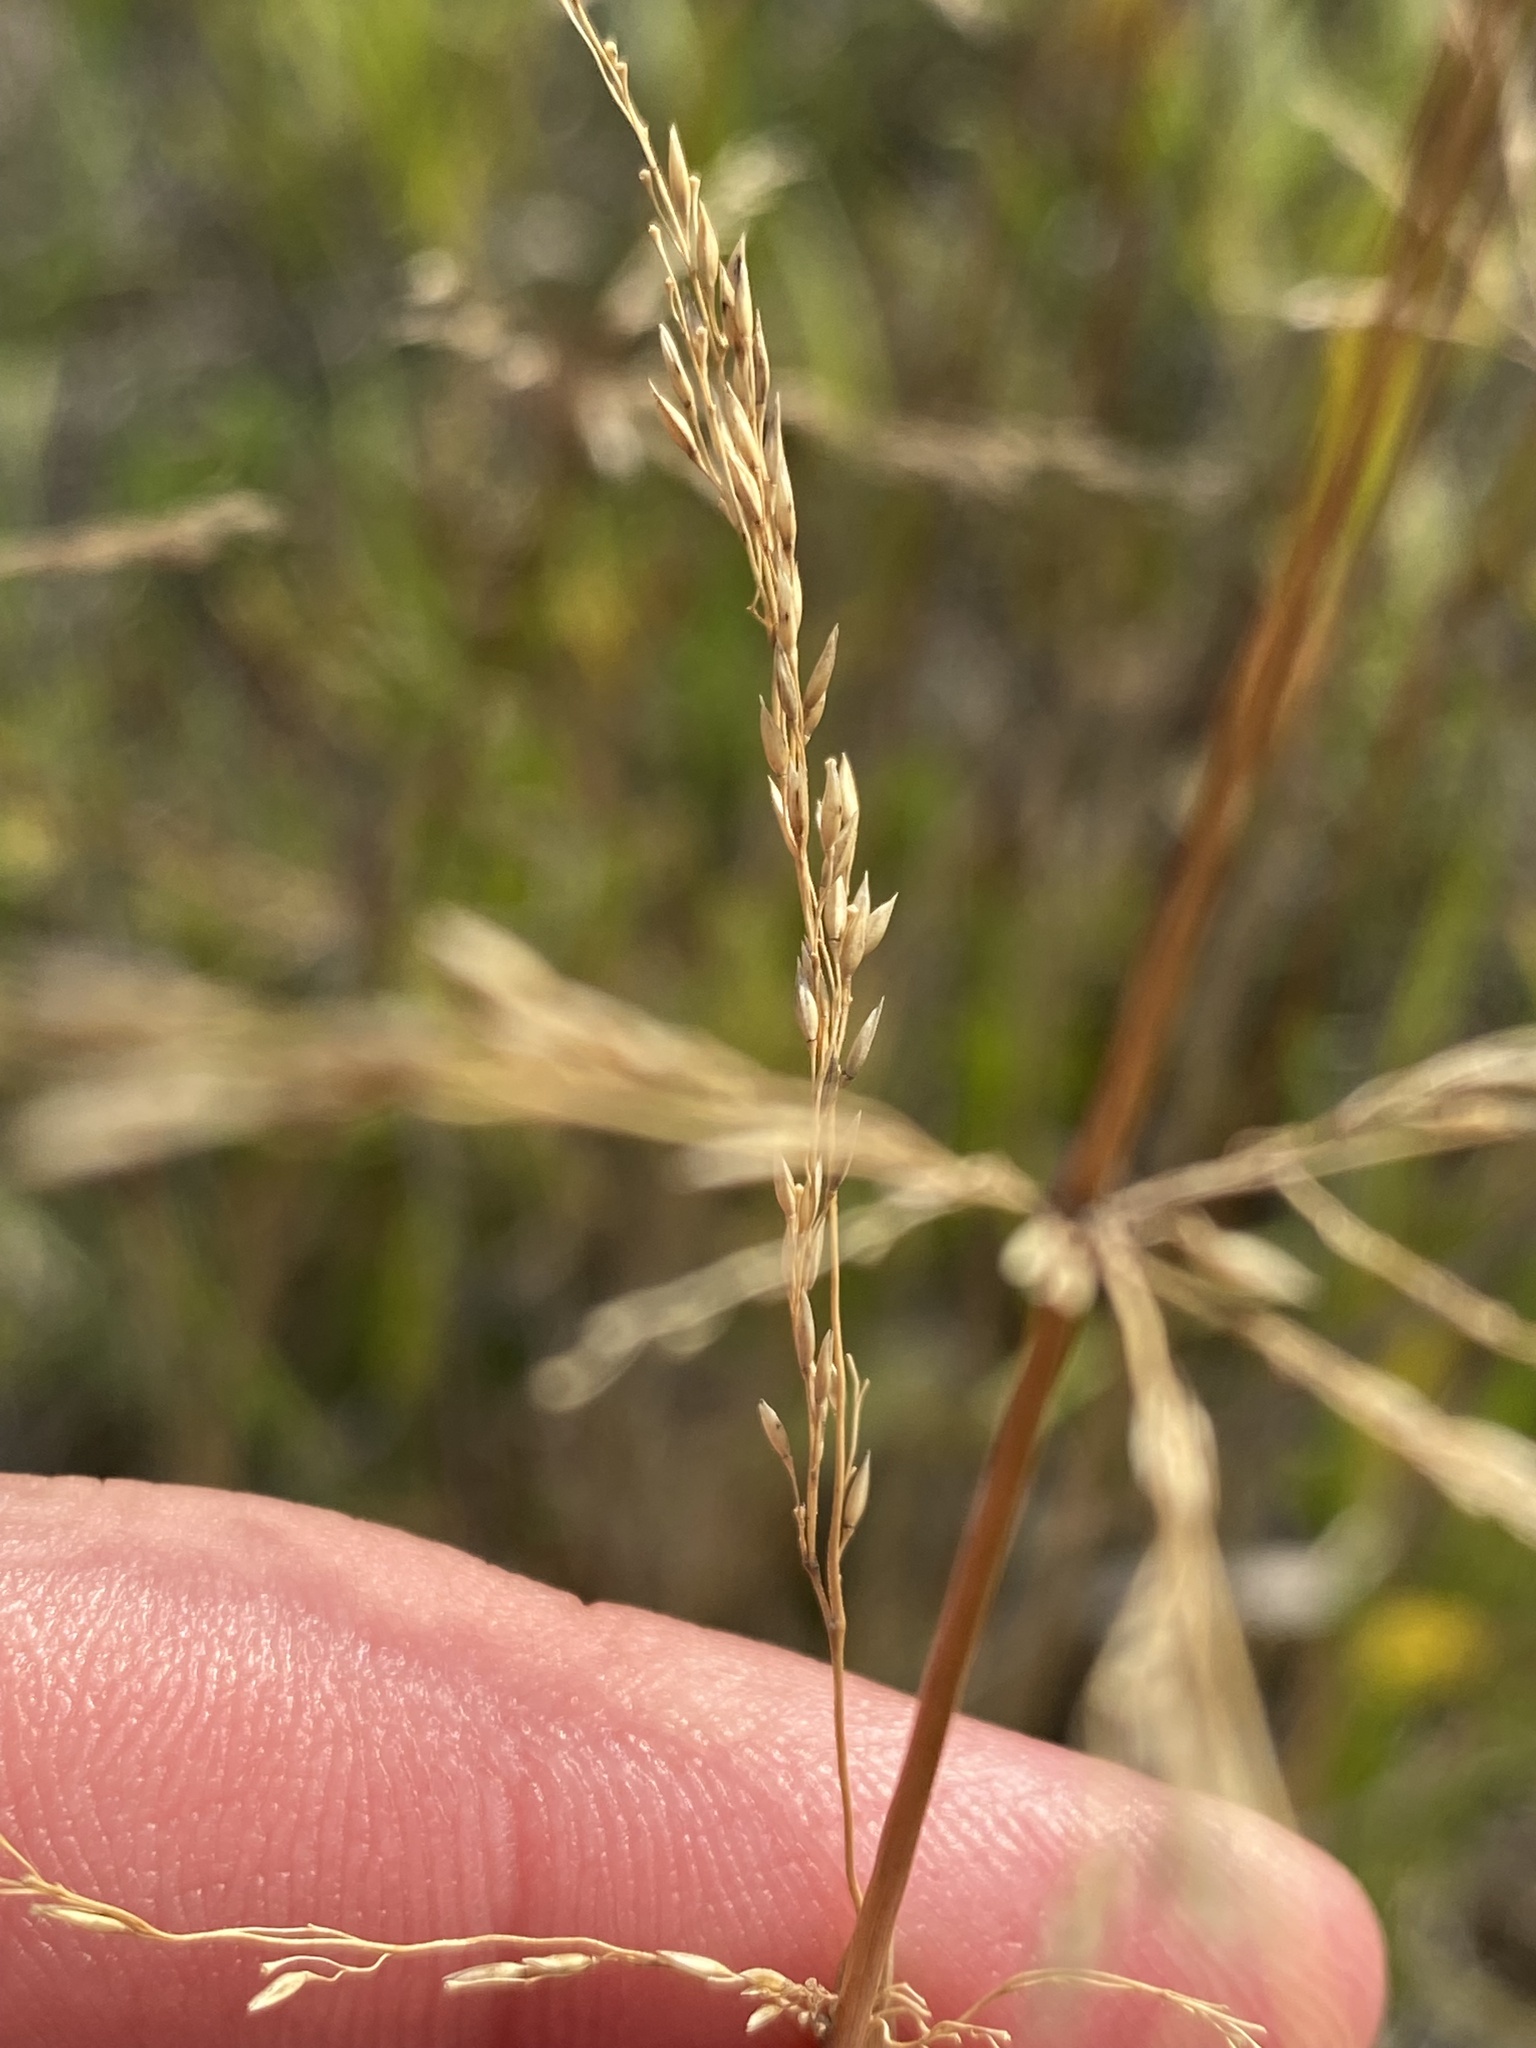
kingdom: Plantae
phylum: Tracheophyta
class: Liliopsida
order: Poales
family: Poaceae
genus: Agrostis
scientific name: Agrostis stolonifera
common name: Creeping bentgrass
